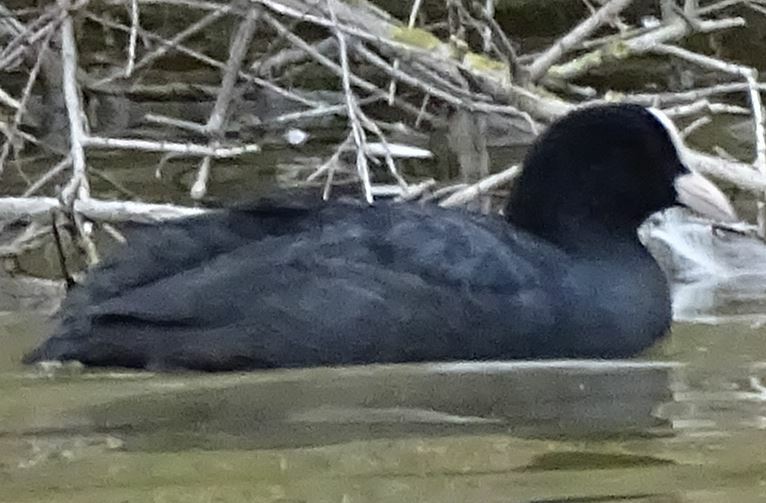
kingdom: Animalia
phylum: Chordata
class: Aves
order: Gruiformes
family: Rallidae
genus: Fulica
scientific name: Fulica atra
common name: Eurasian coot
